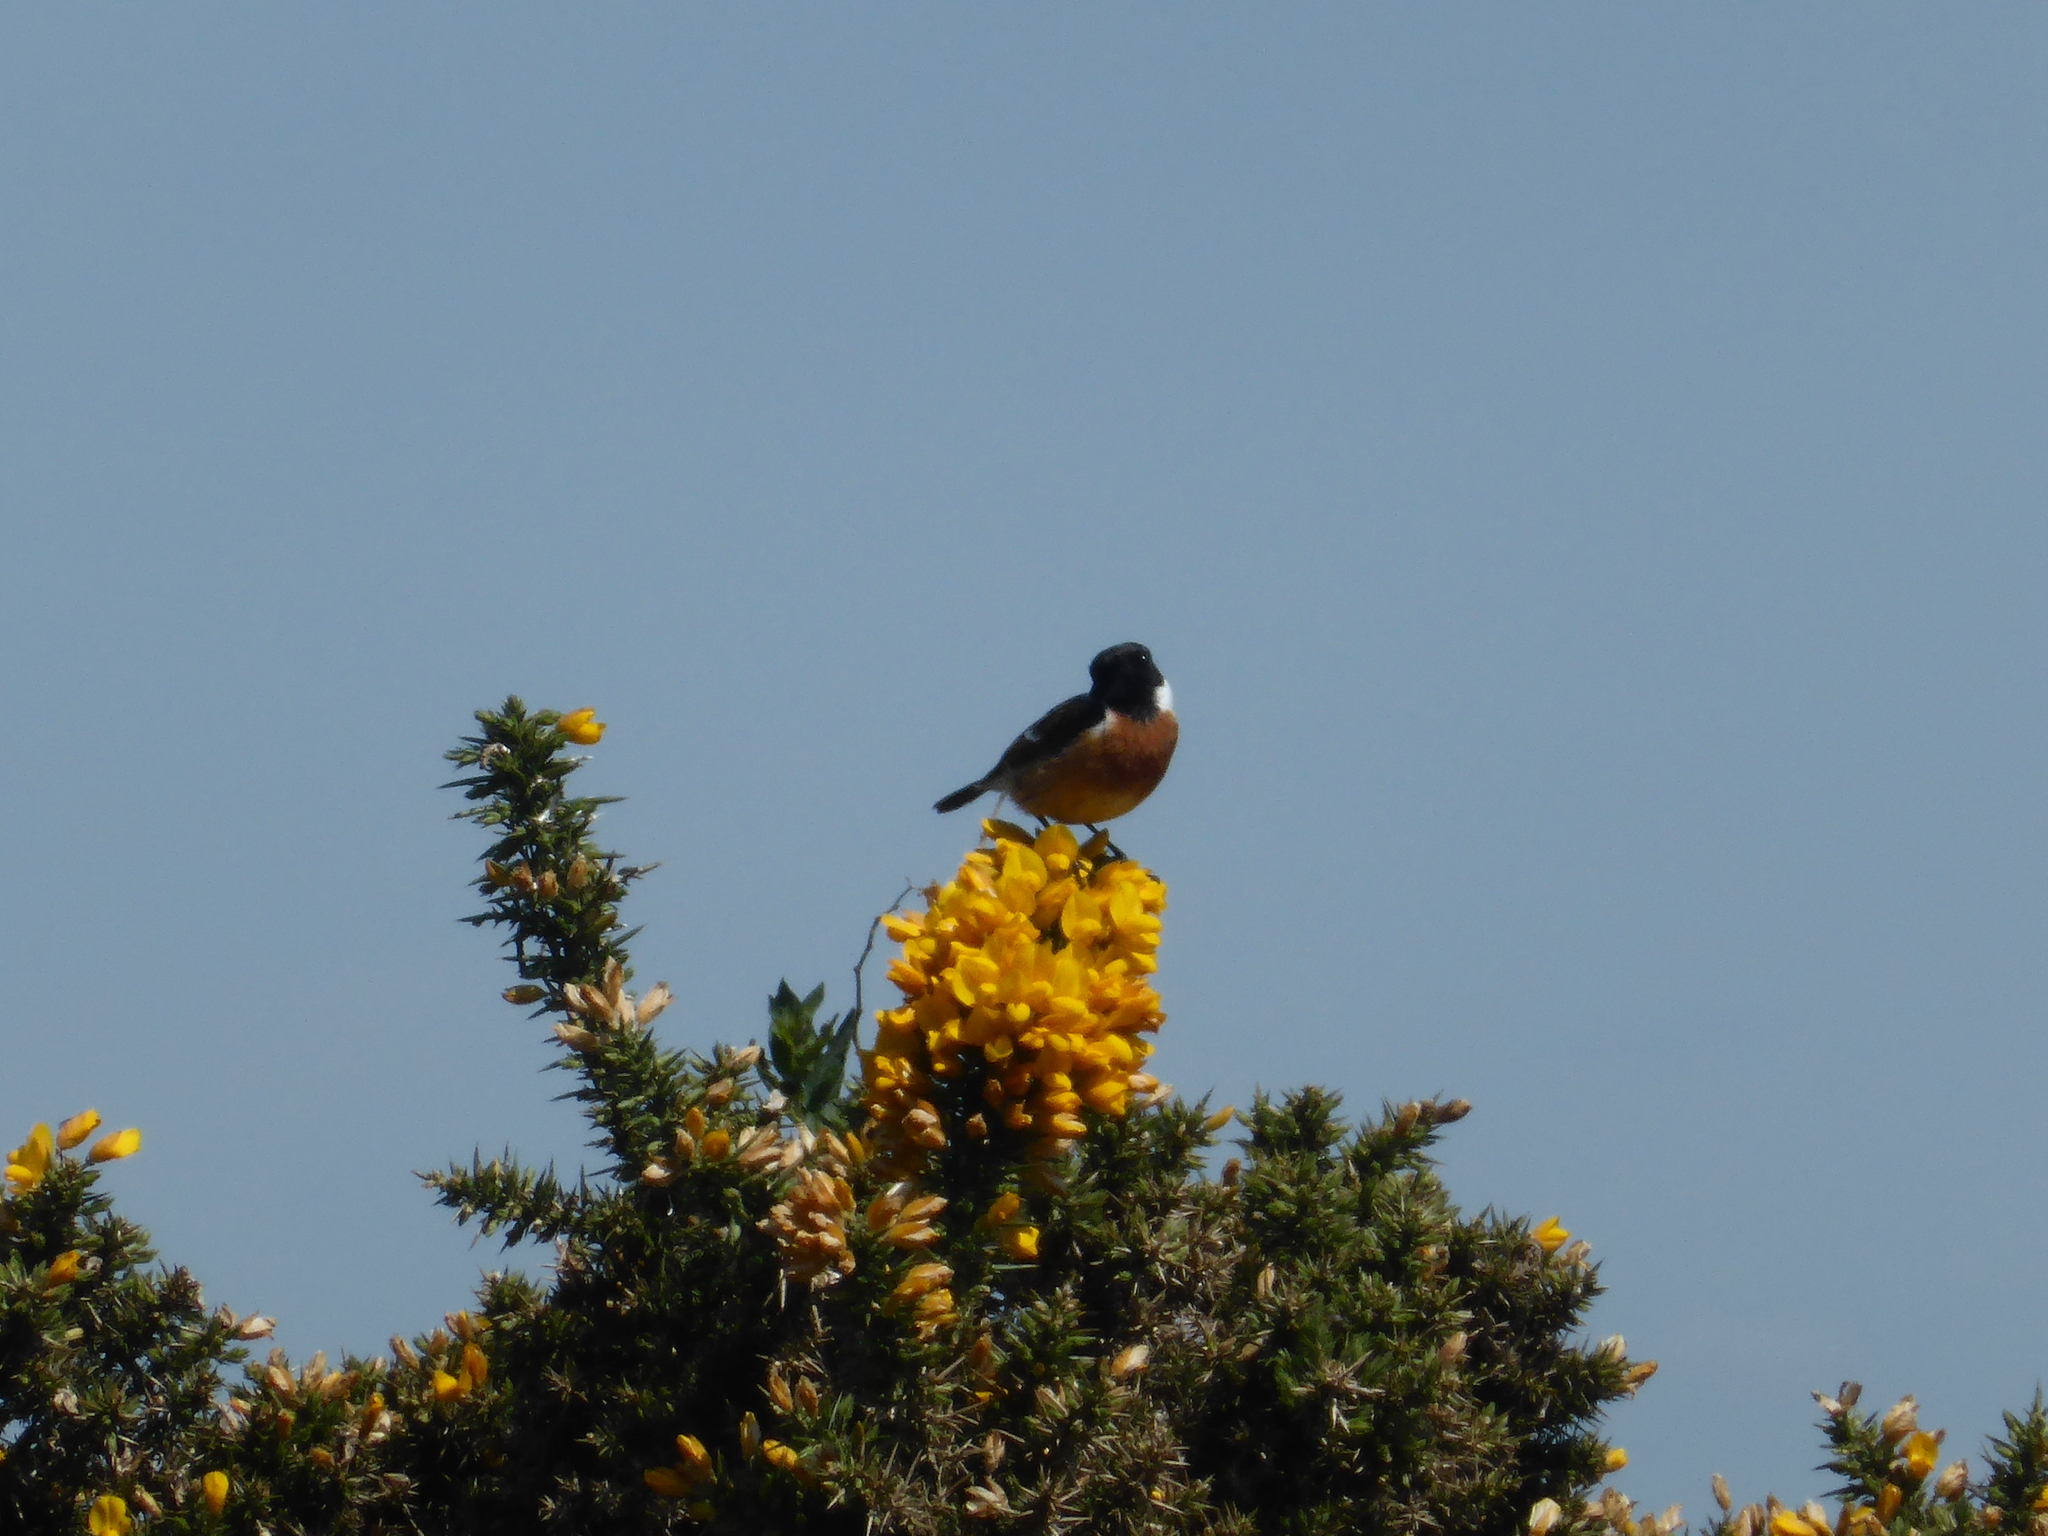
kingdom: Animalia
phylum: Chordata
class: Aves
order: Passeriformes
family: Muscicapidae
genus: Saxicola
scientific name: Saxicola rubicola
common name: European stonechat
